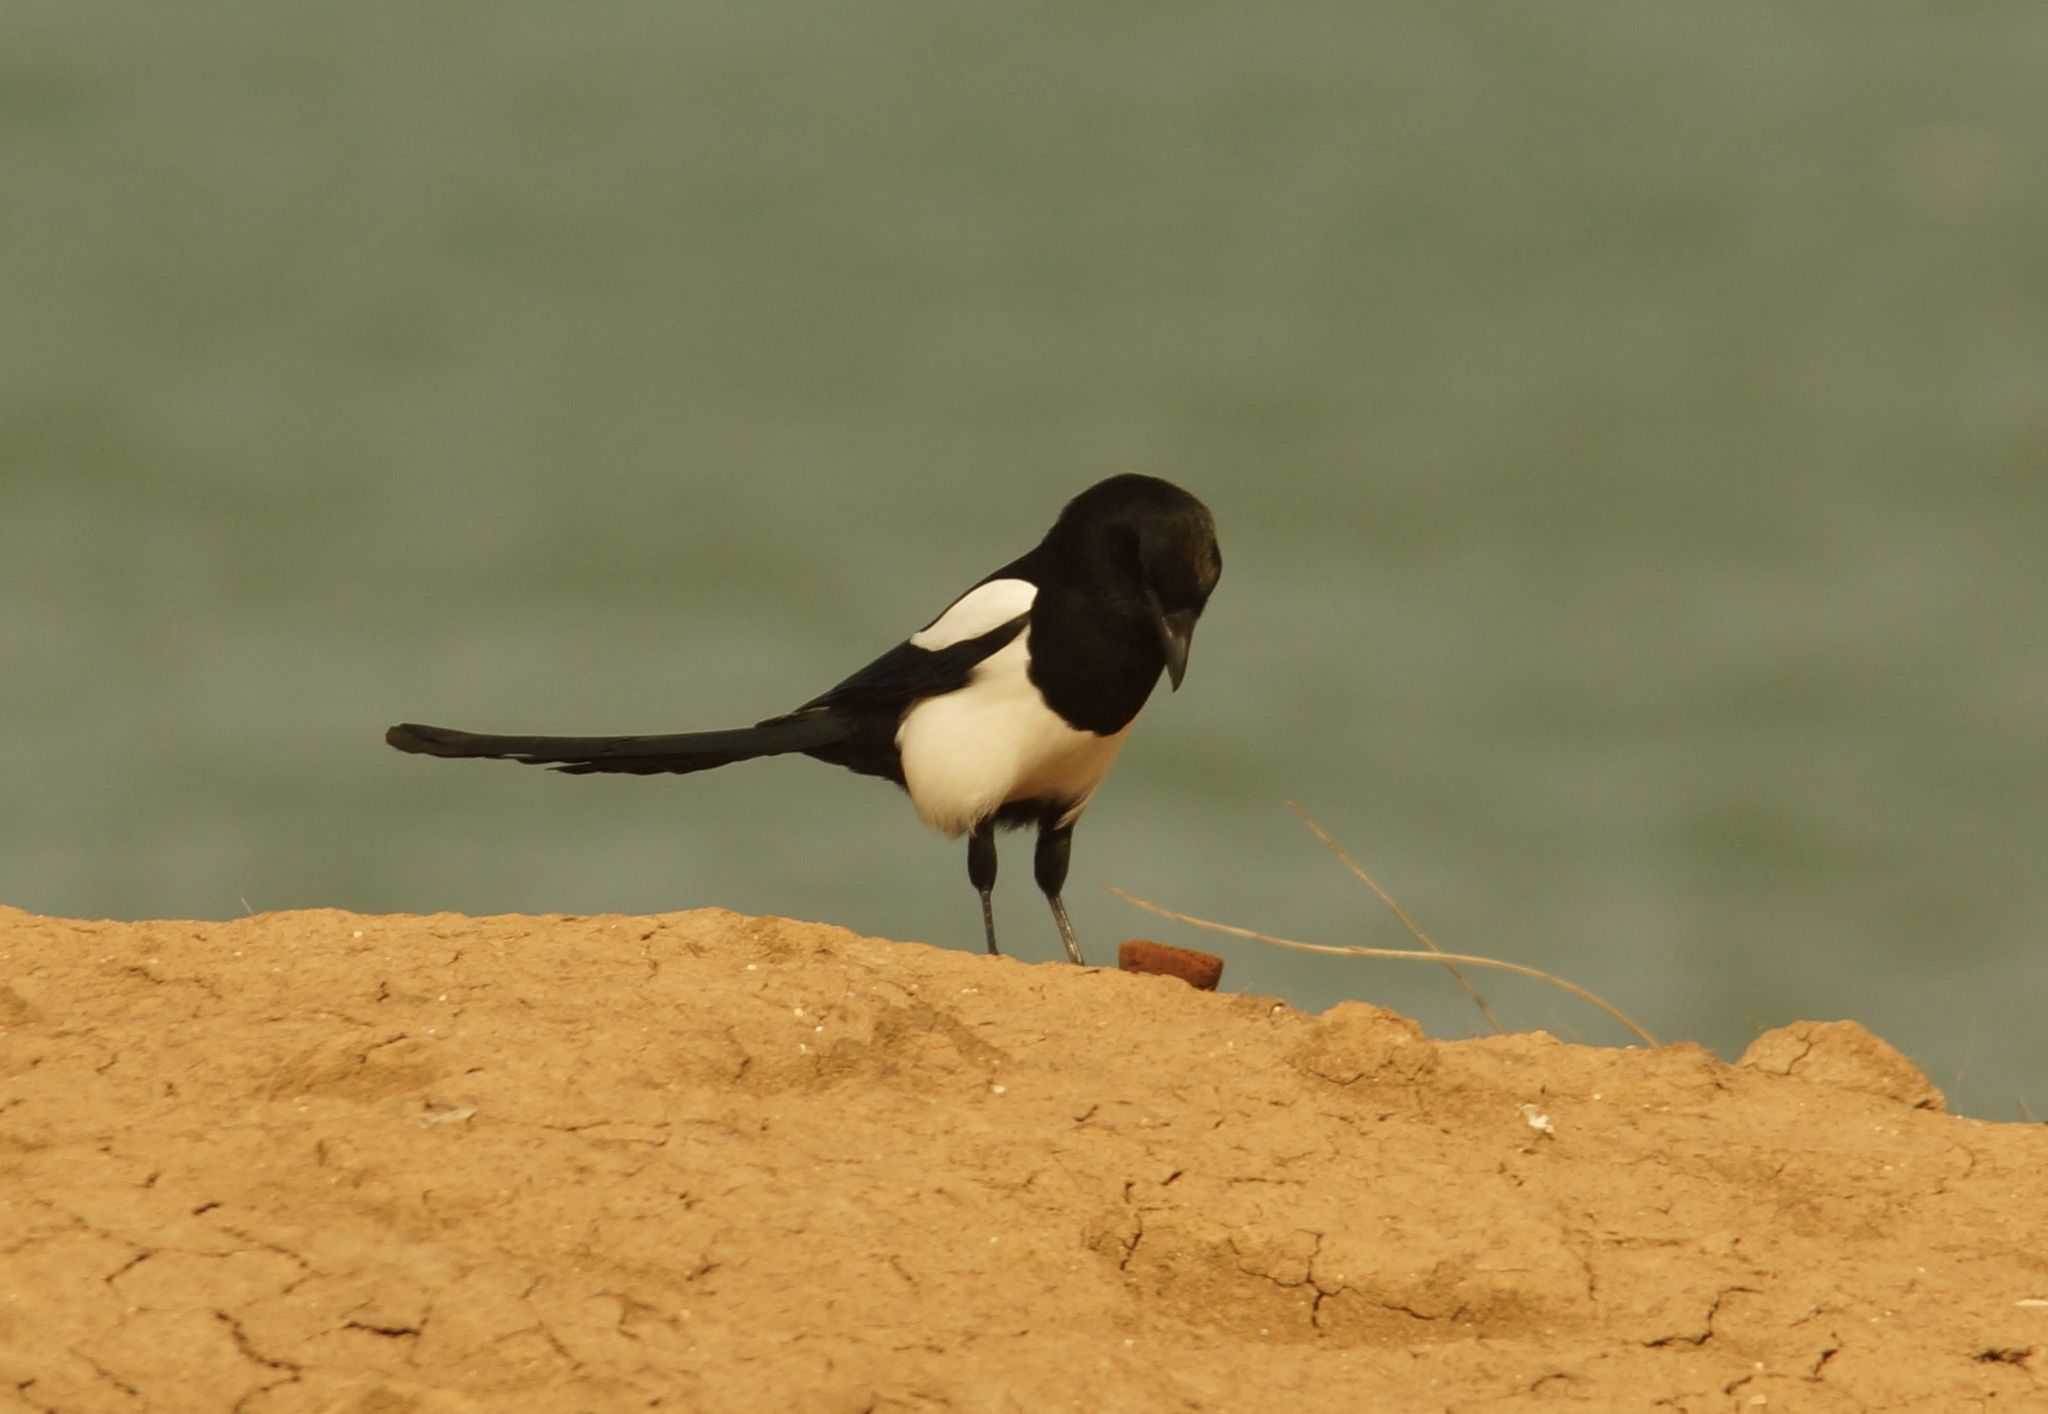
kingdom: Animalia
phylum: Chordata
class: Aves
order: Passeriformes
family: Corvidae
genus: Pica
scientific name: Pica pica
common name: Eurasian magpie
